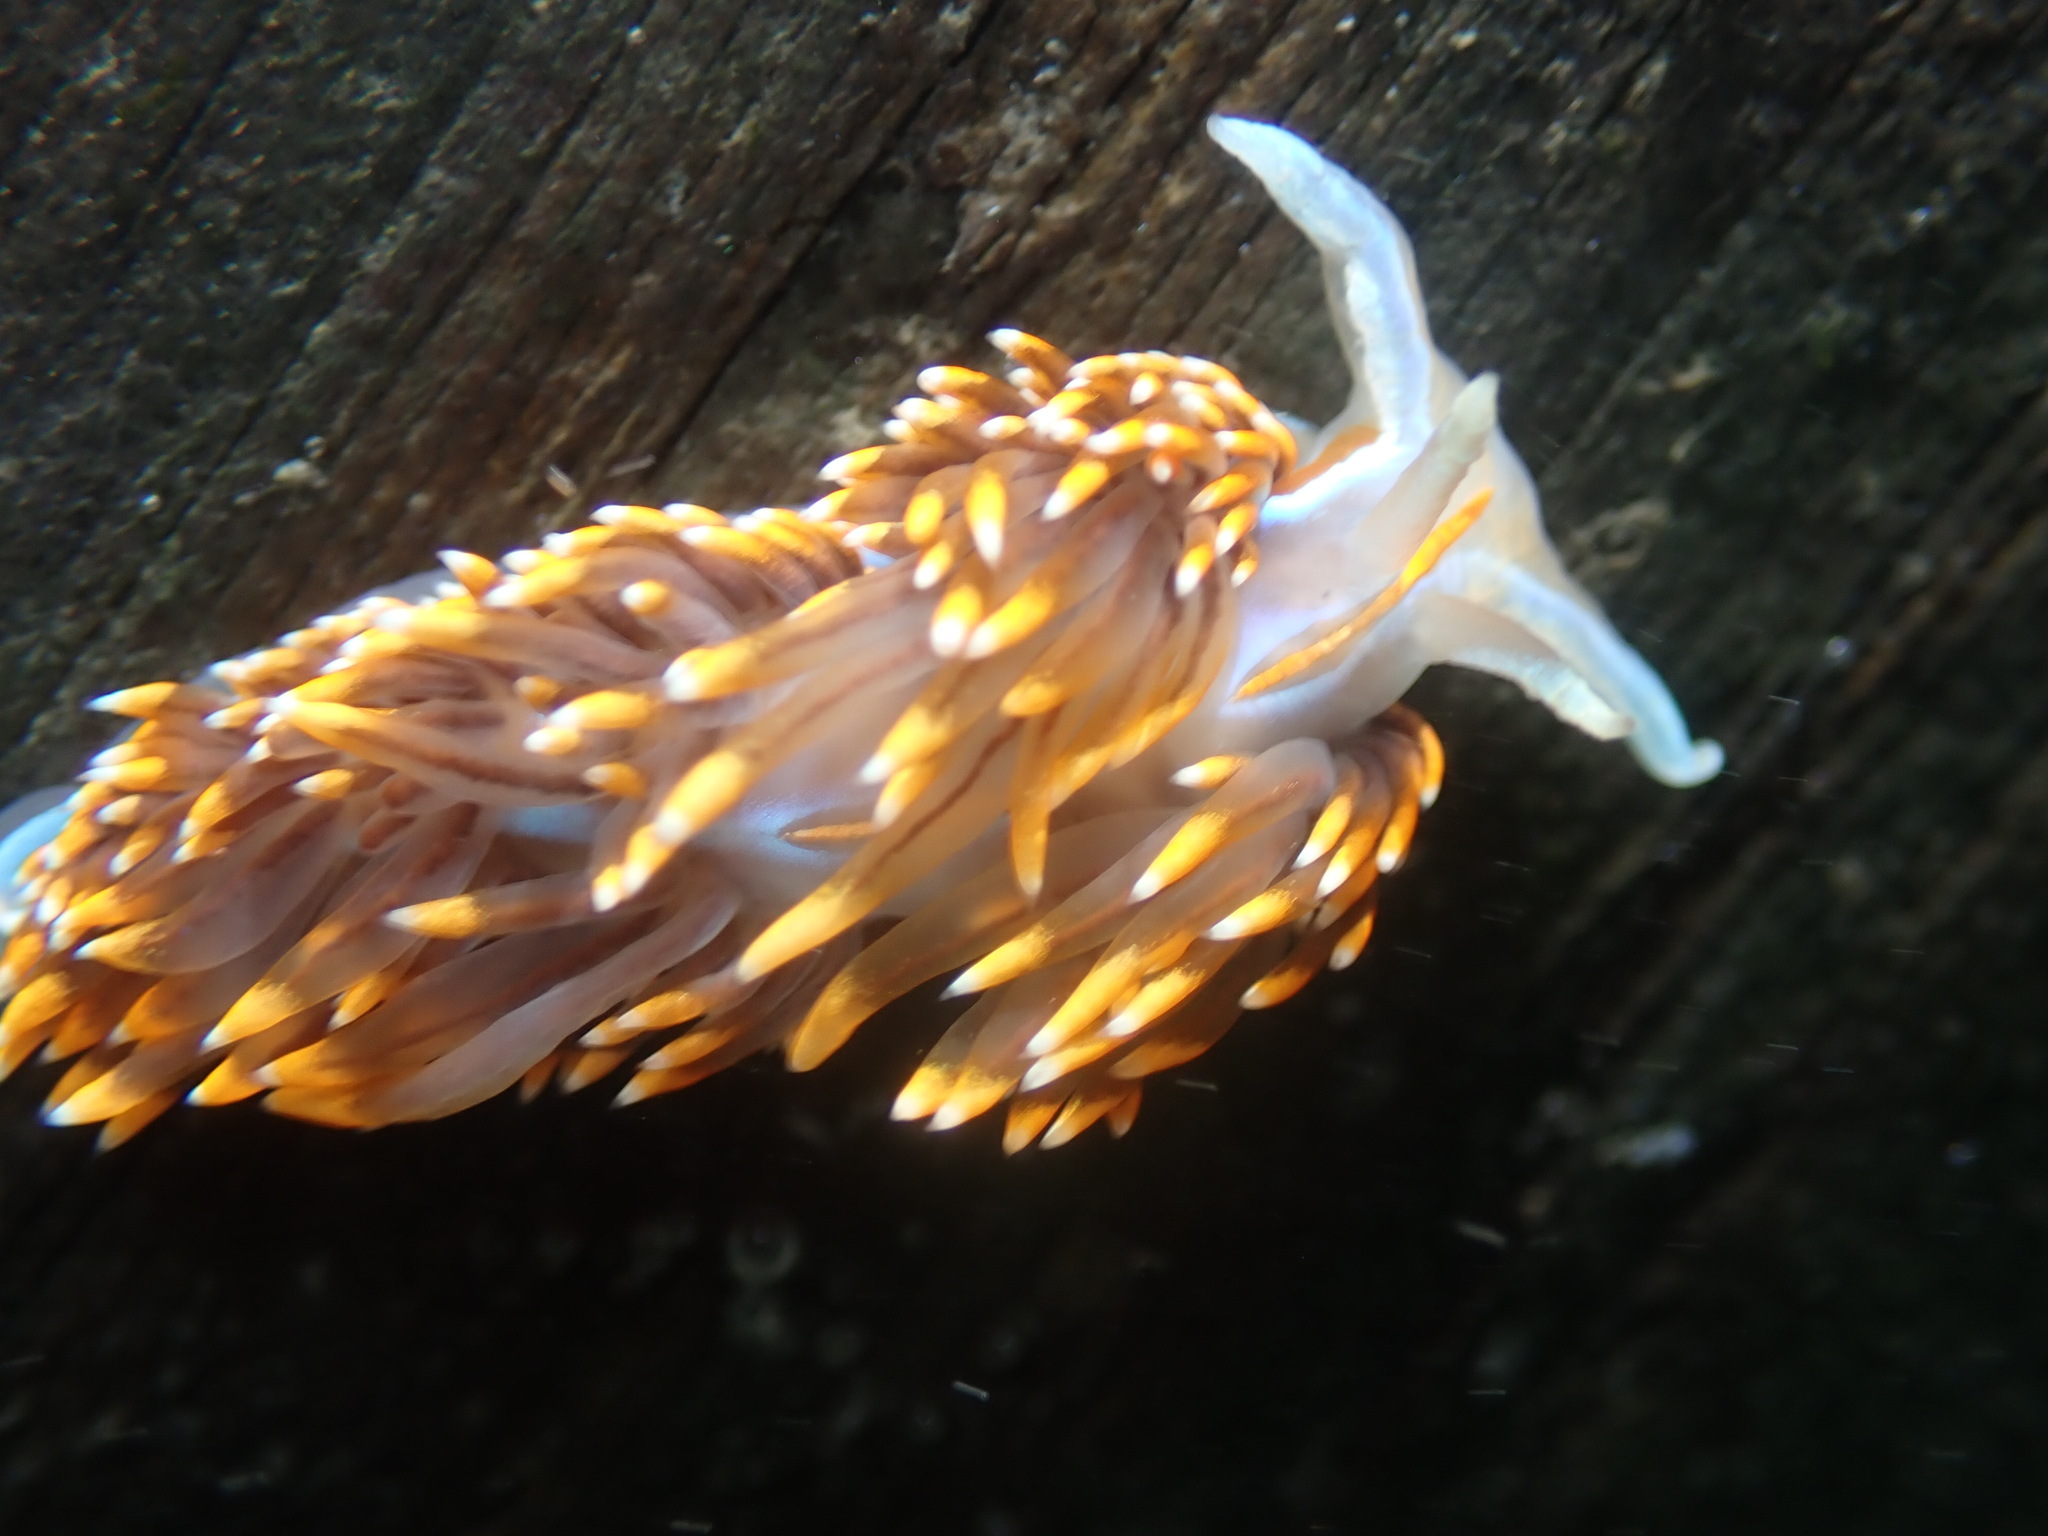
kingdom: Animalia
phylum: Mollusca
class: Gastropoda
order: Nudibranchia
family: Myrrhinidae
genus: Hermissenda
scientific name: Hermissenda opalescens
